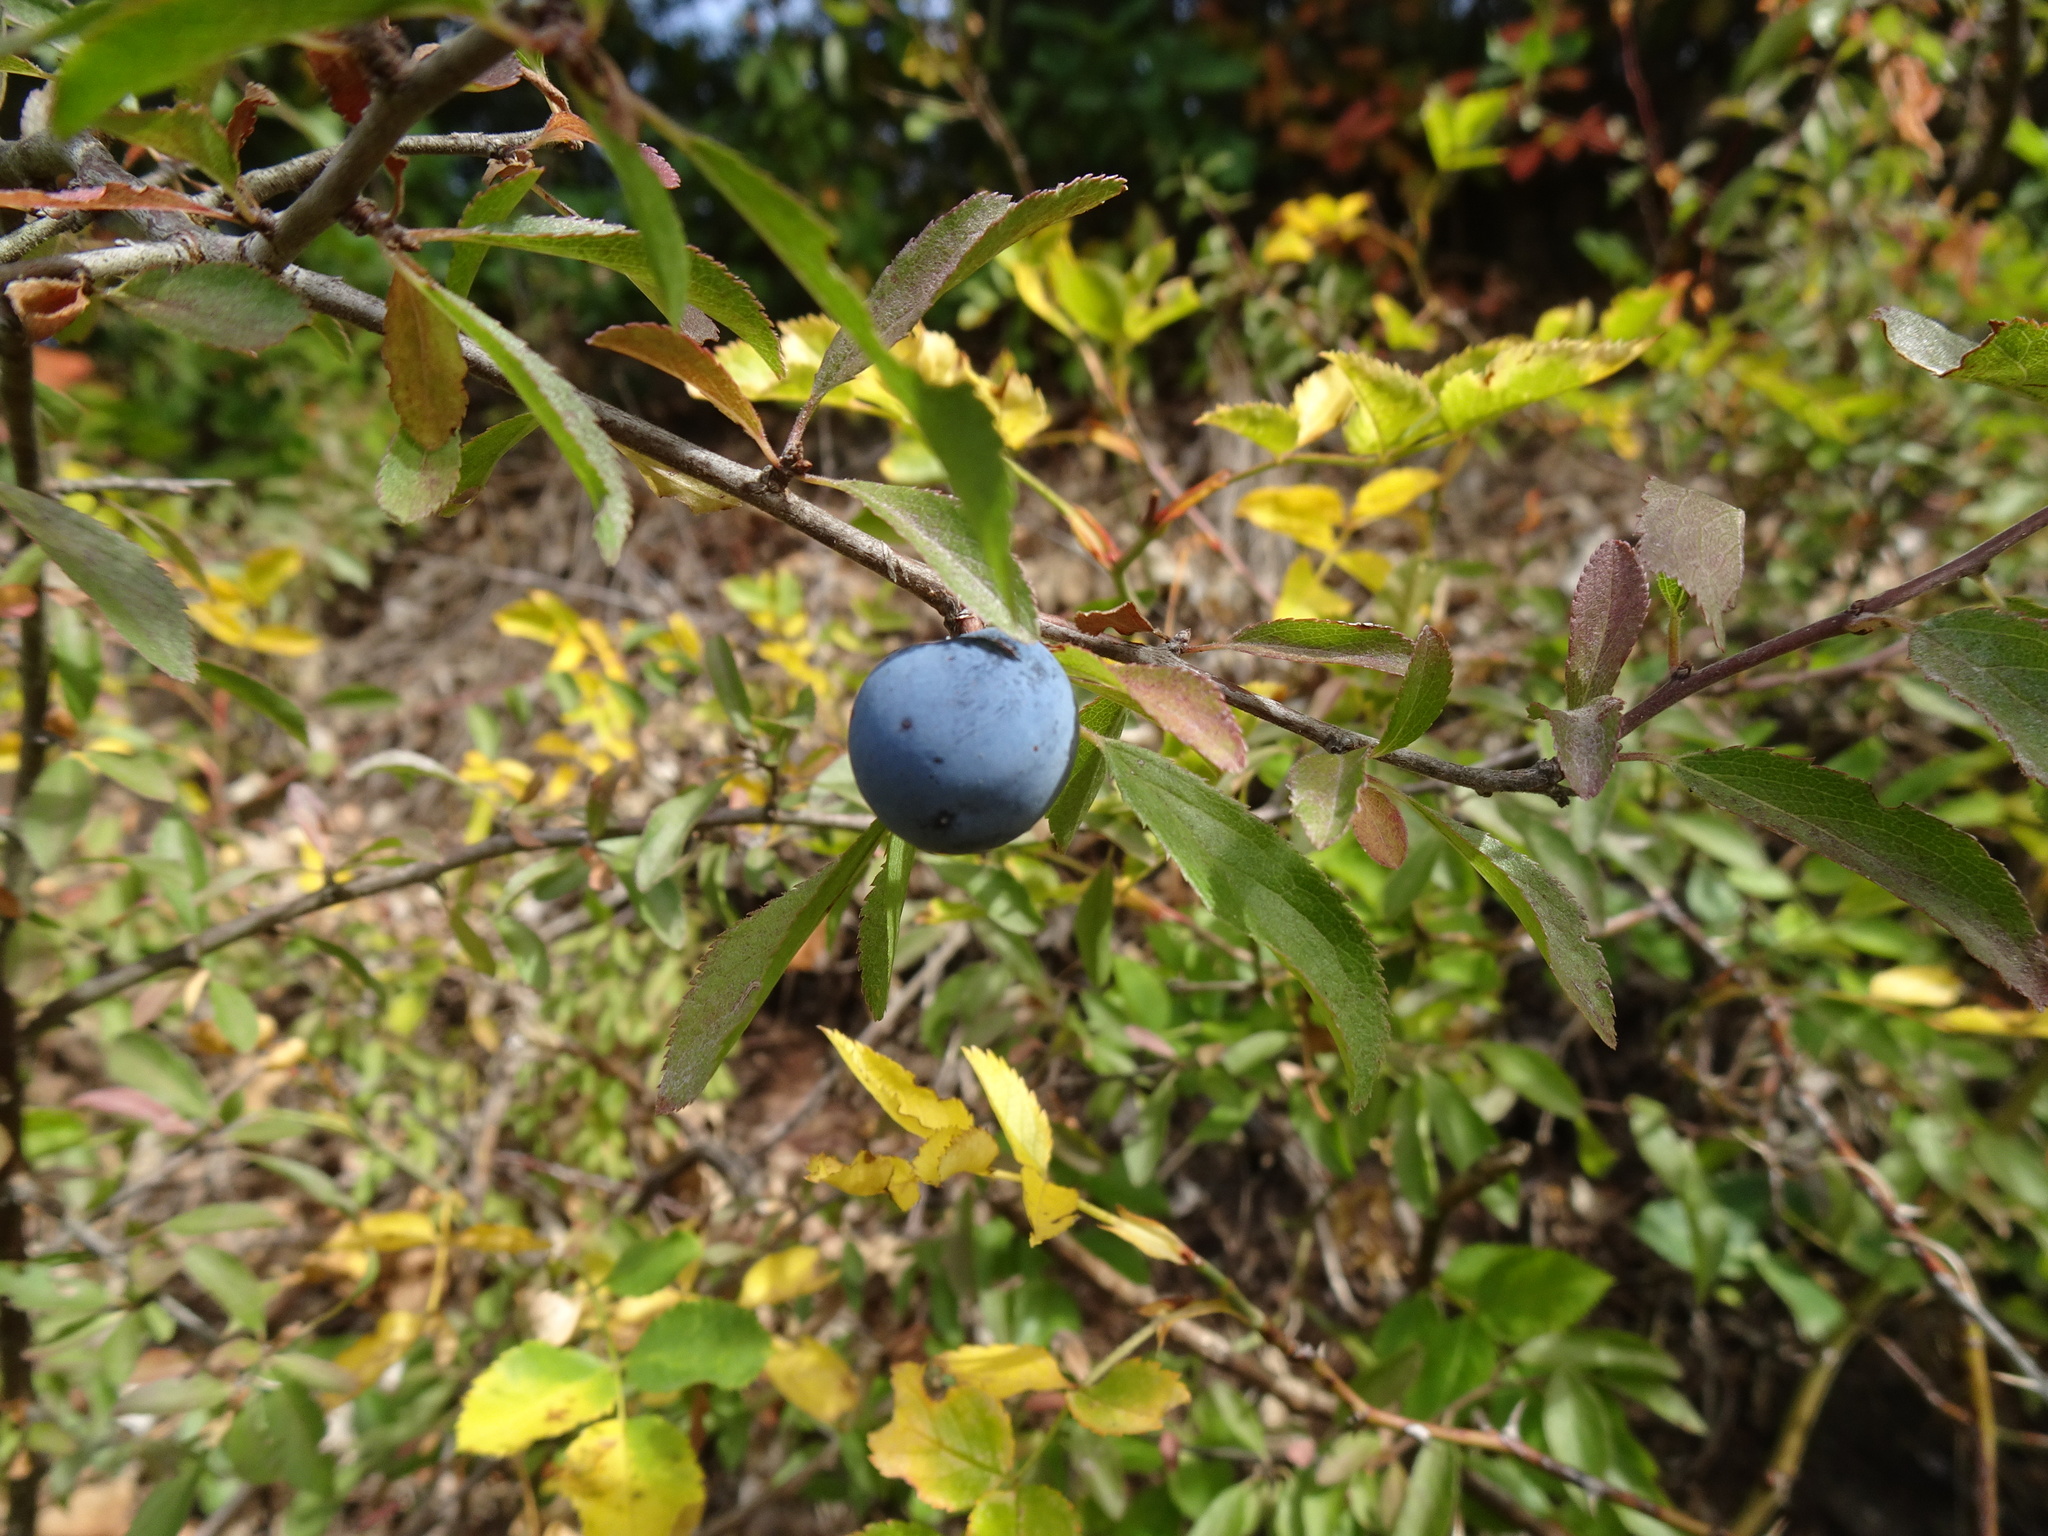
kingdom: Plantae
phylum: Tracheophyta
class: Magnoliopsida
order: Rosales
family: Rosaceae
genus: Prunus
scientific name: Prunus spinosa
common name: Blackthorn
